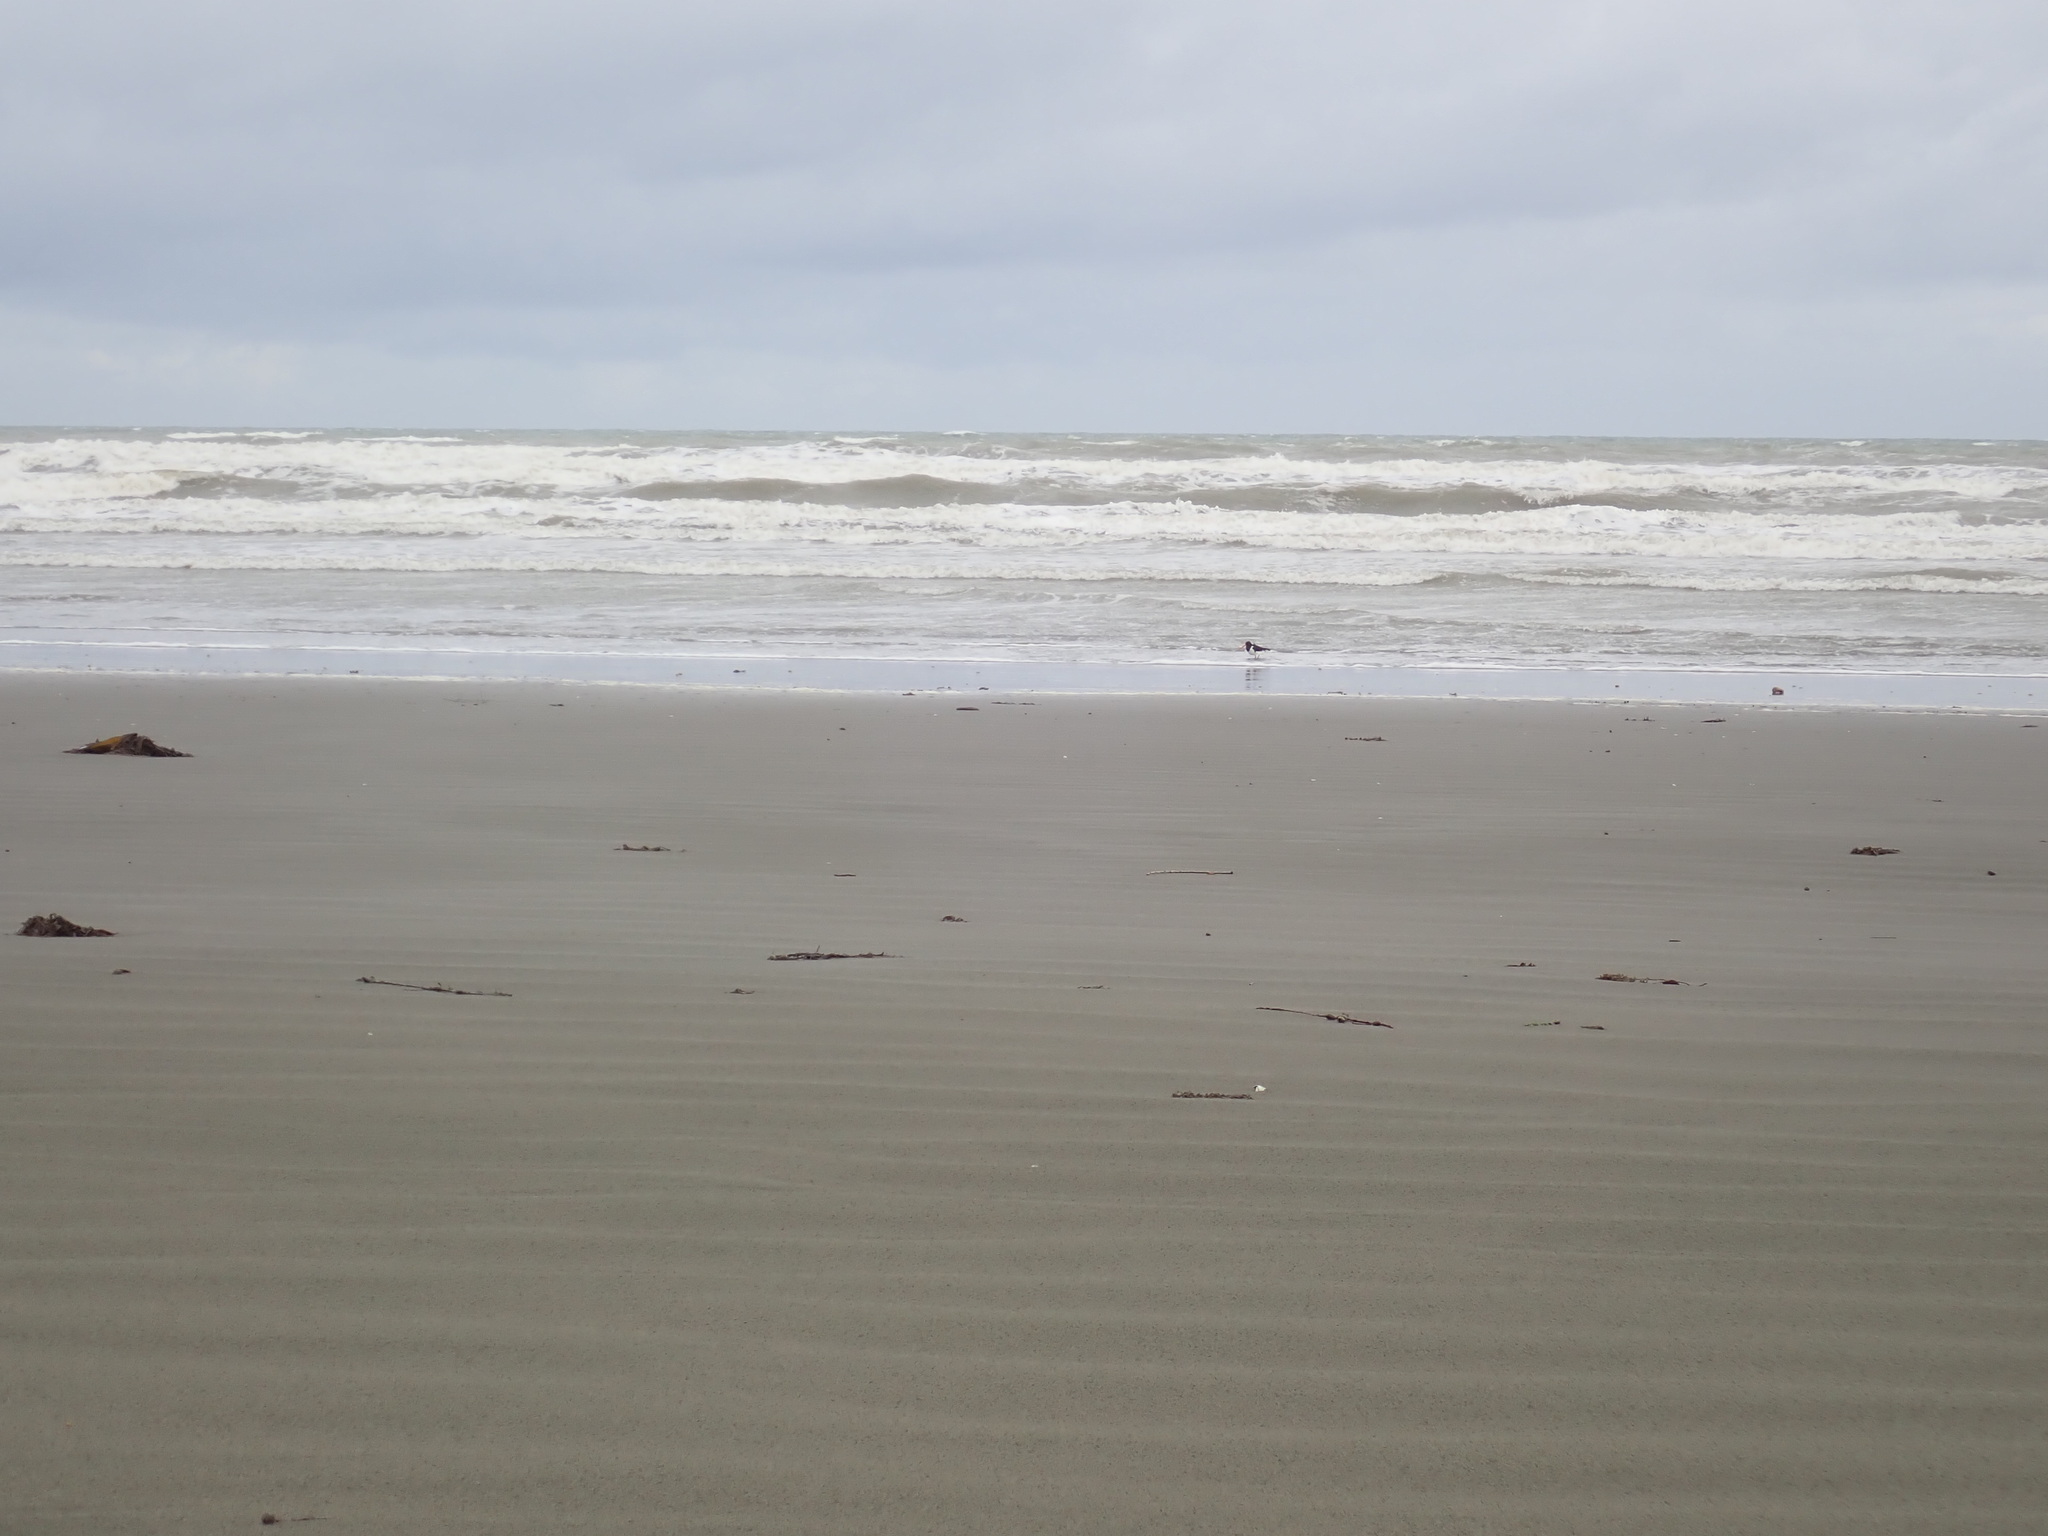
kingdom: Animalia
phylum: Chordata
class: Aves
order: Charadriiformes
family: Haematopodidae
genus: Haematopus
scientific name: Haematopus finschi
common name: South island oystercatcher
